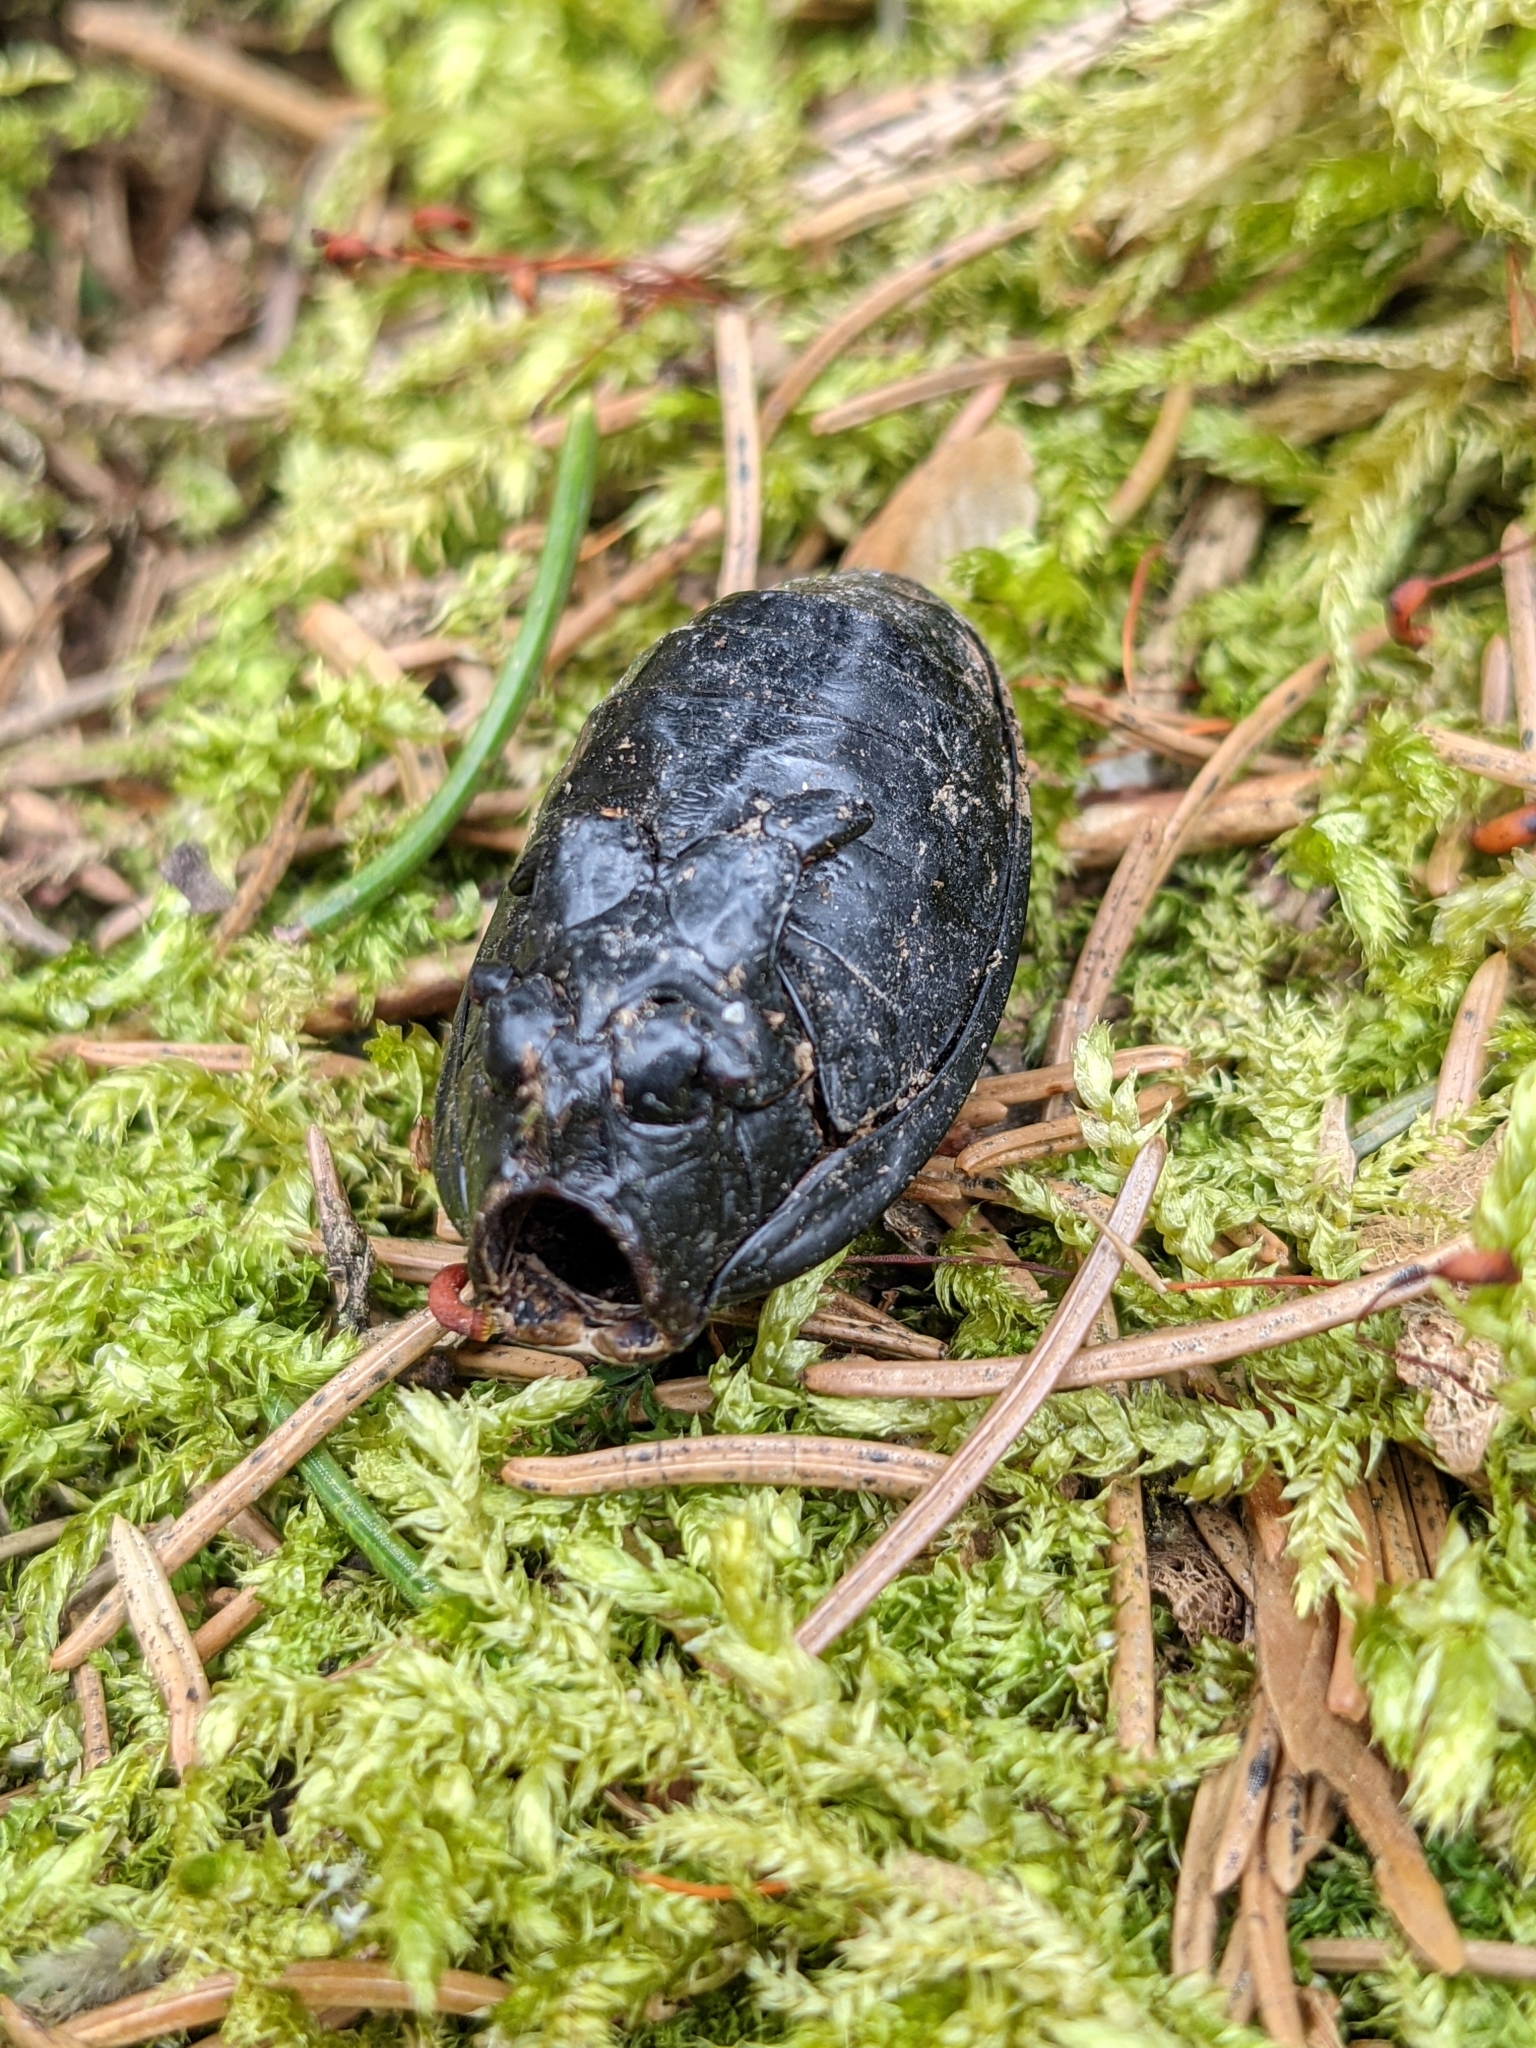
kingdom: Animalia
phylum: Arthropoda
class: Insecta
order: Coleoptera
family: Carabidae
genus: Carabus
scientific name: Carabus coriaceus
